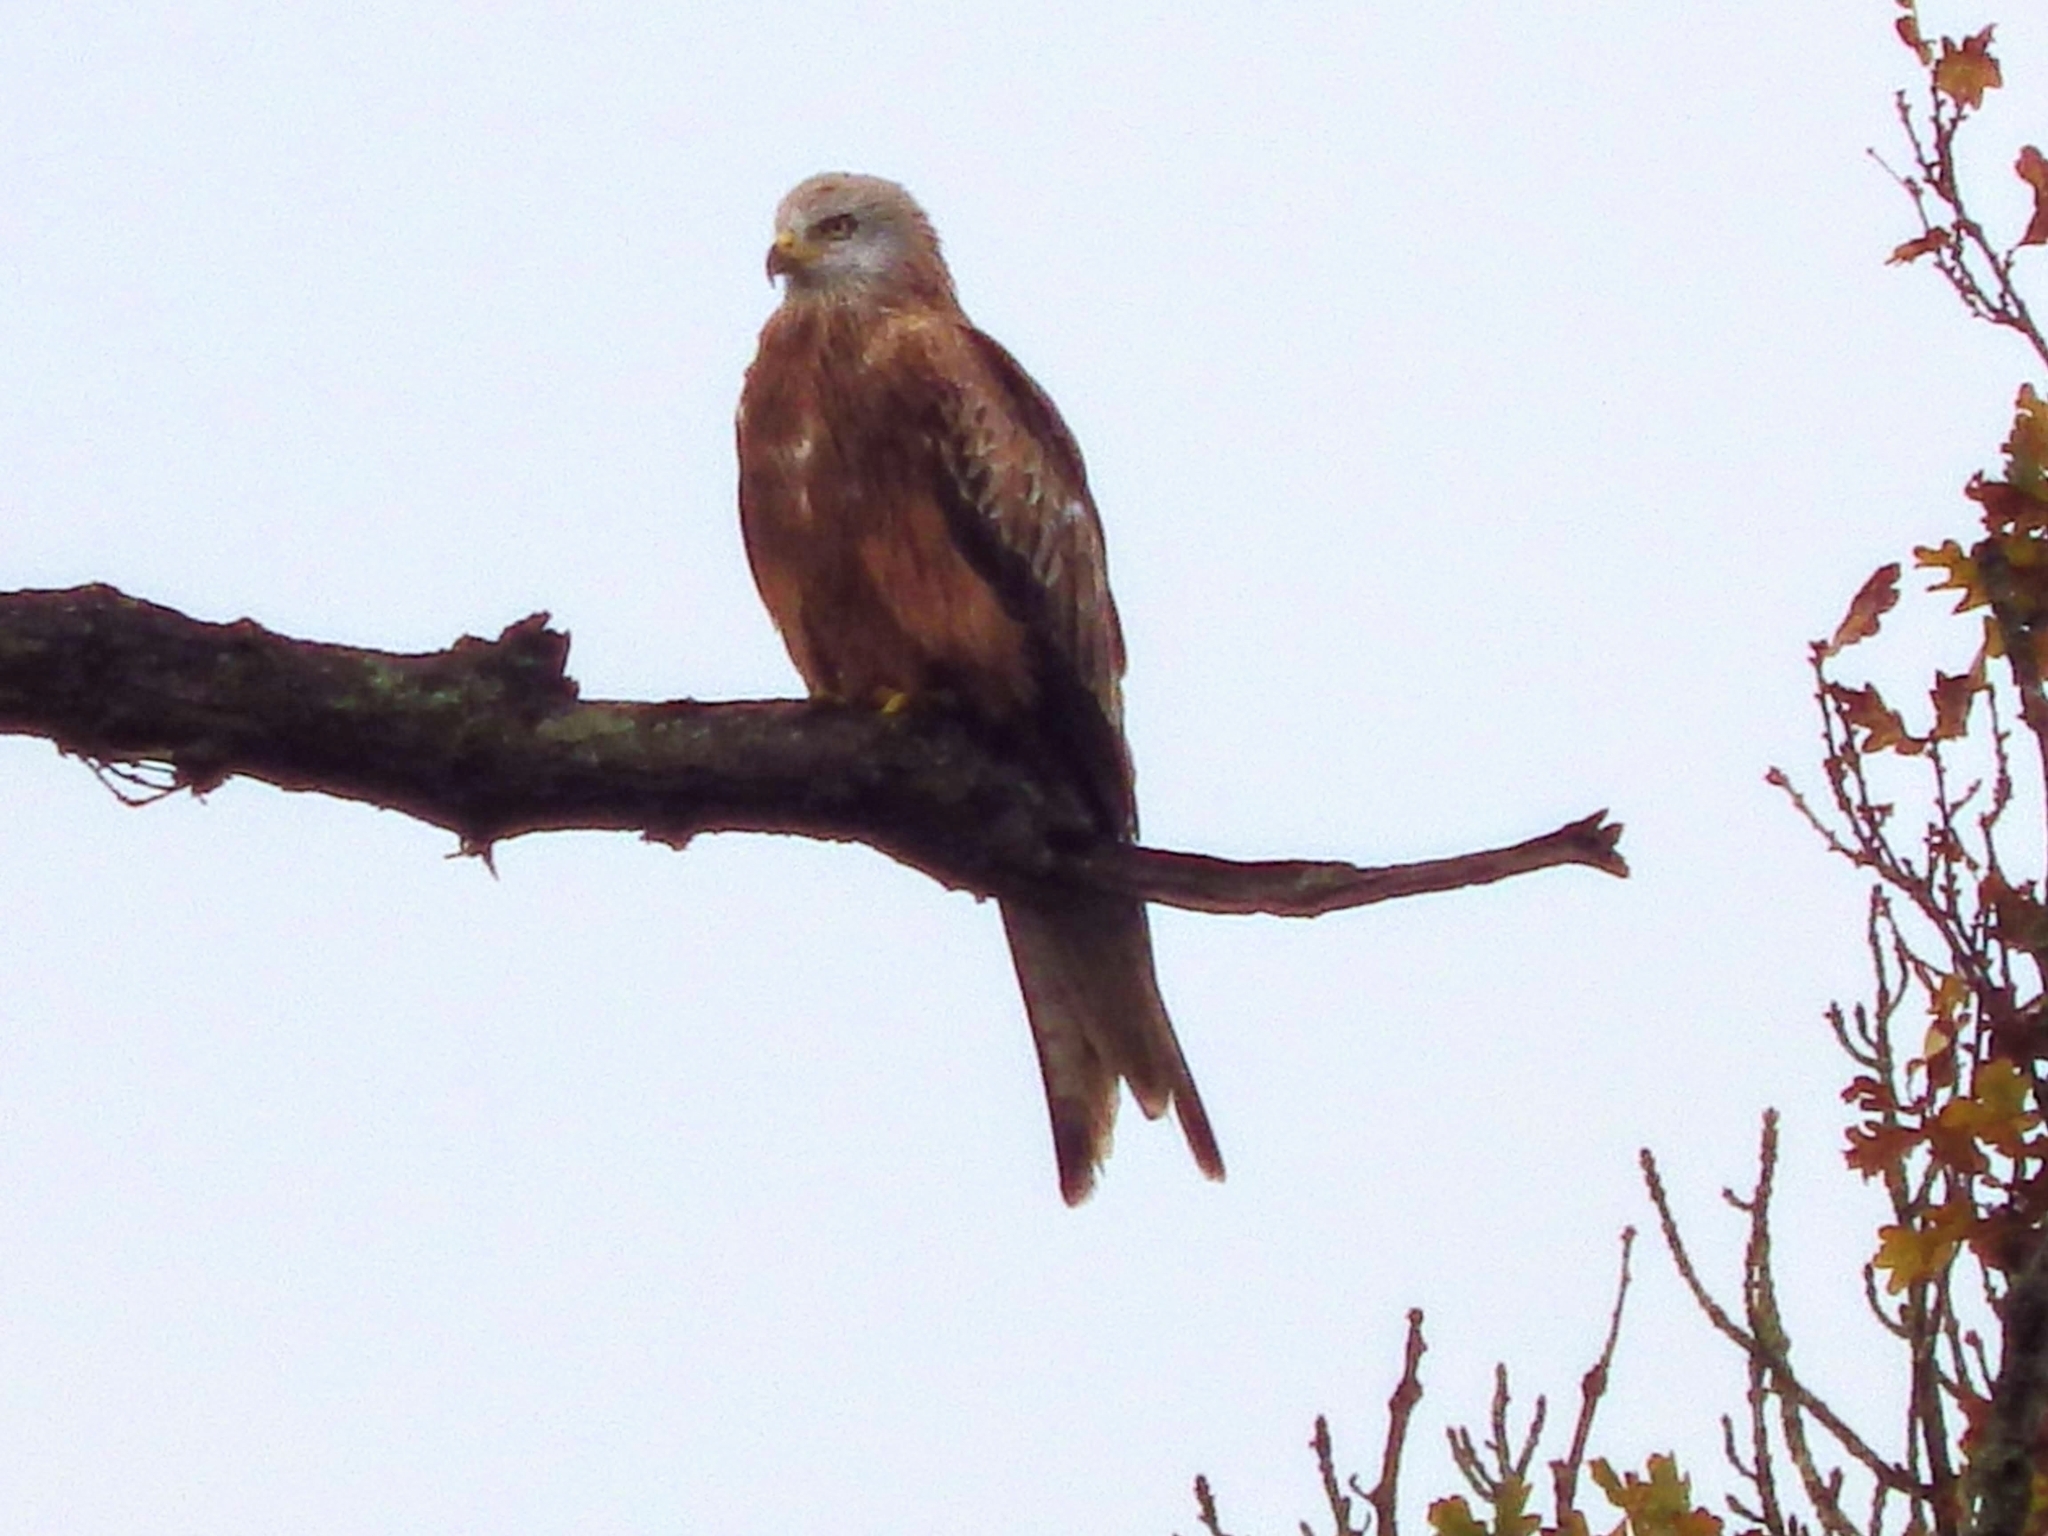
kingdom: Animalia
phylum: Chordata
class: Aves
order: Accipitriformes
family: Accipitridae
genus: Milvus
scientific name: Milvus milvus
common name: Red kite
